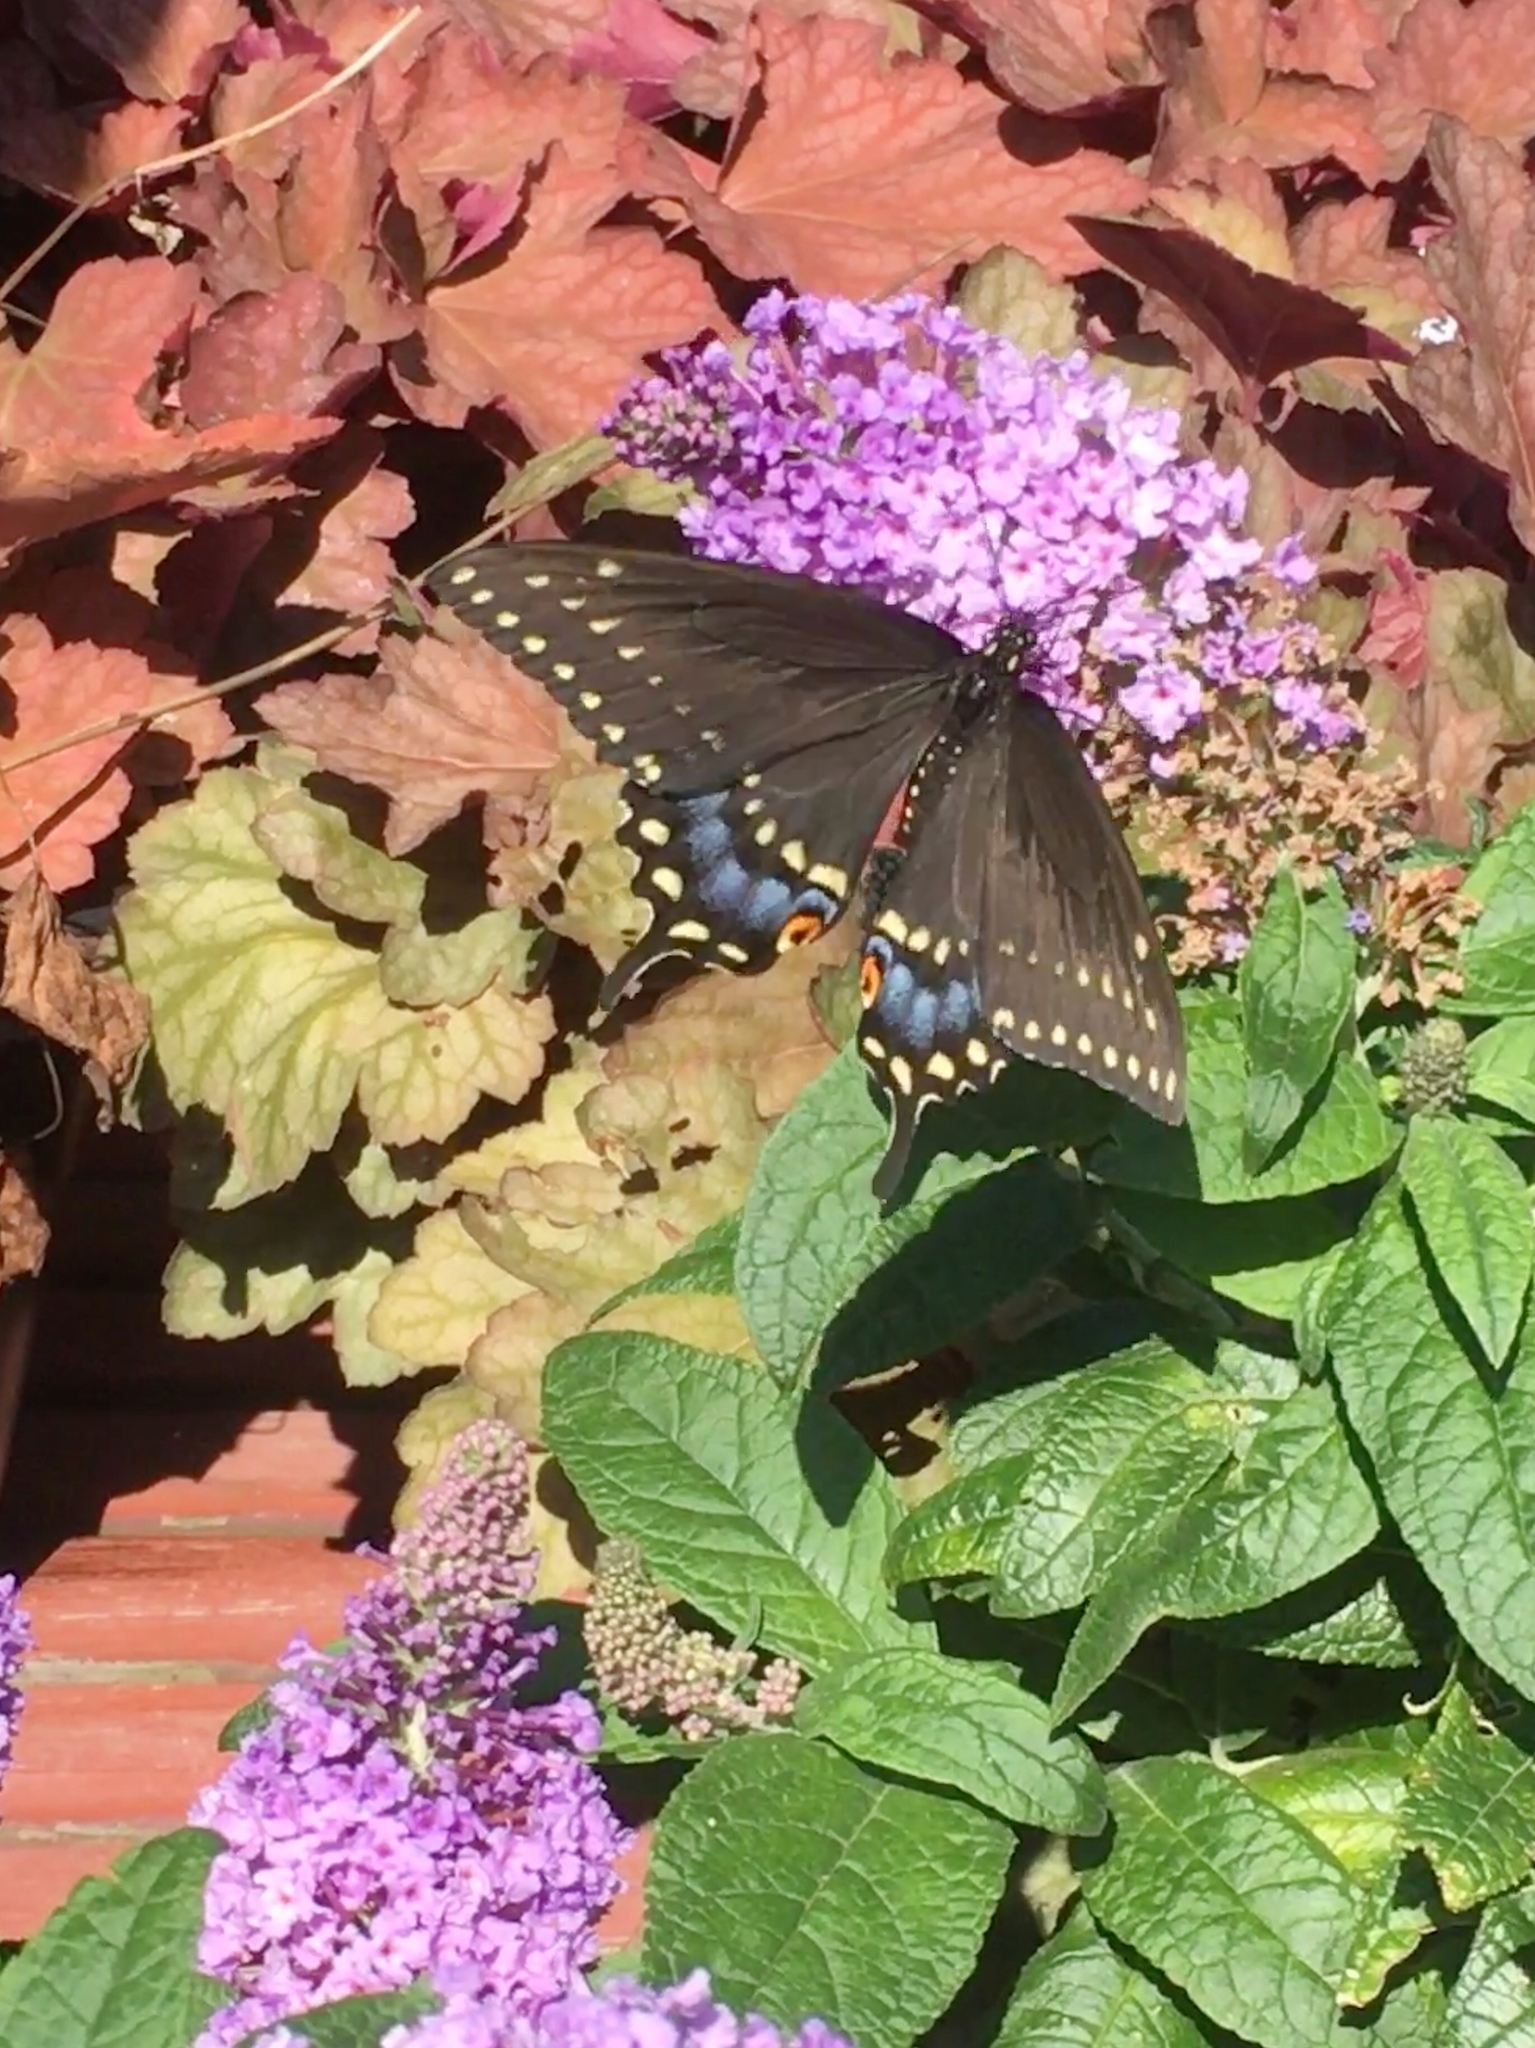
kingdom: Animalia
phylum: Arthropoda
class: Insecta
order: Lepidoptera
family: Papilionidae
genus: Papilio
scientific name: Papilio polyxenes
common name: Black swallowtail
